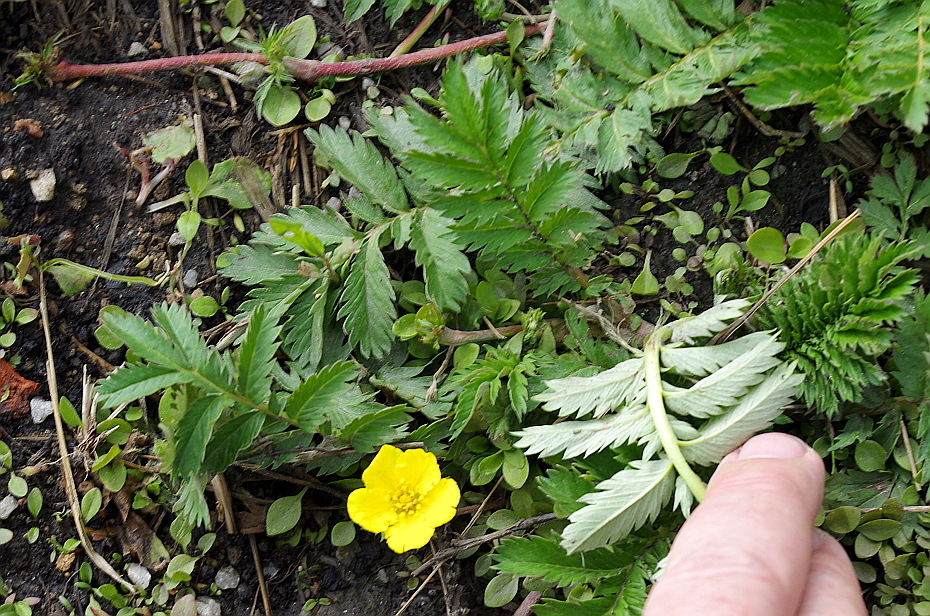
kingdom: Plantae
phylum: Tracheophyta
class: Magnoliopsida
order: Rosales
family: Rosaceae
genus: Argentina
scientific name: Argentina anserina
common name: Common silverweed
